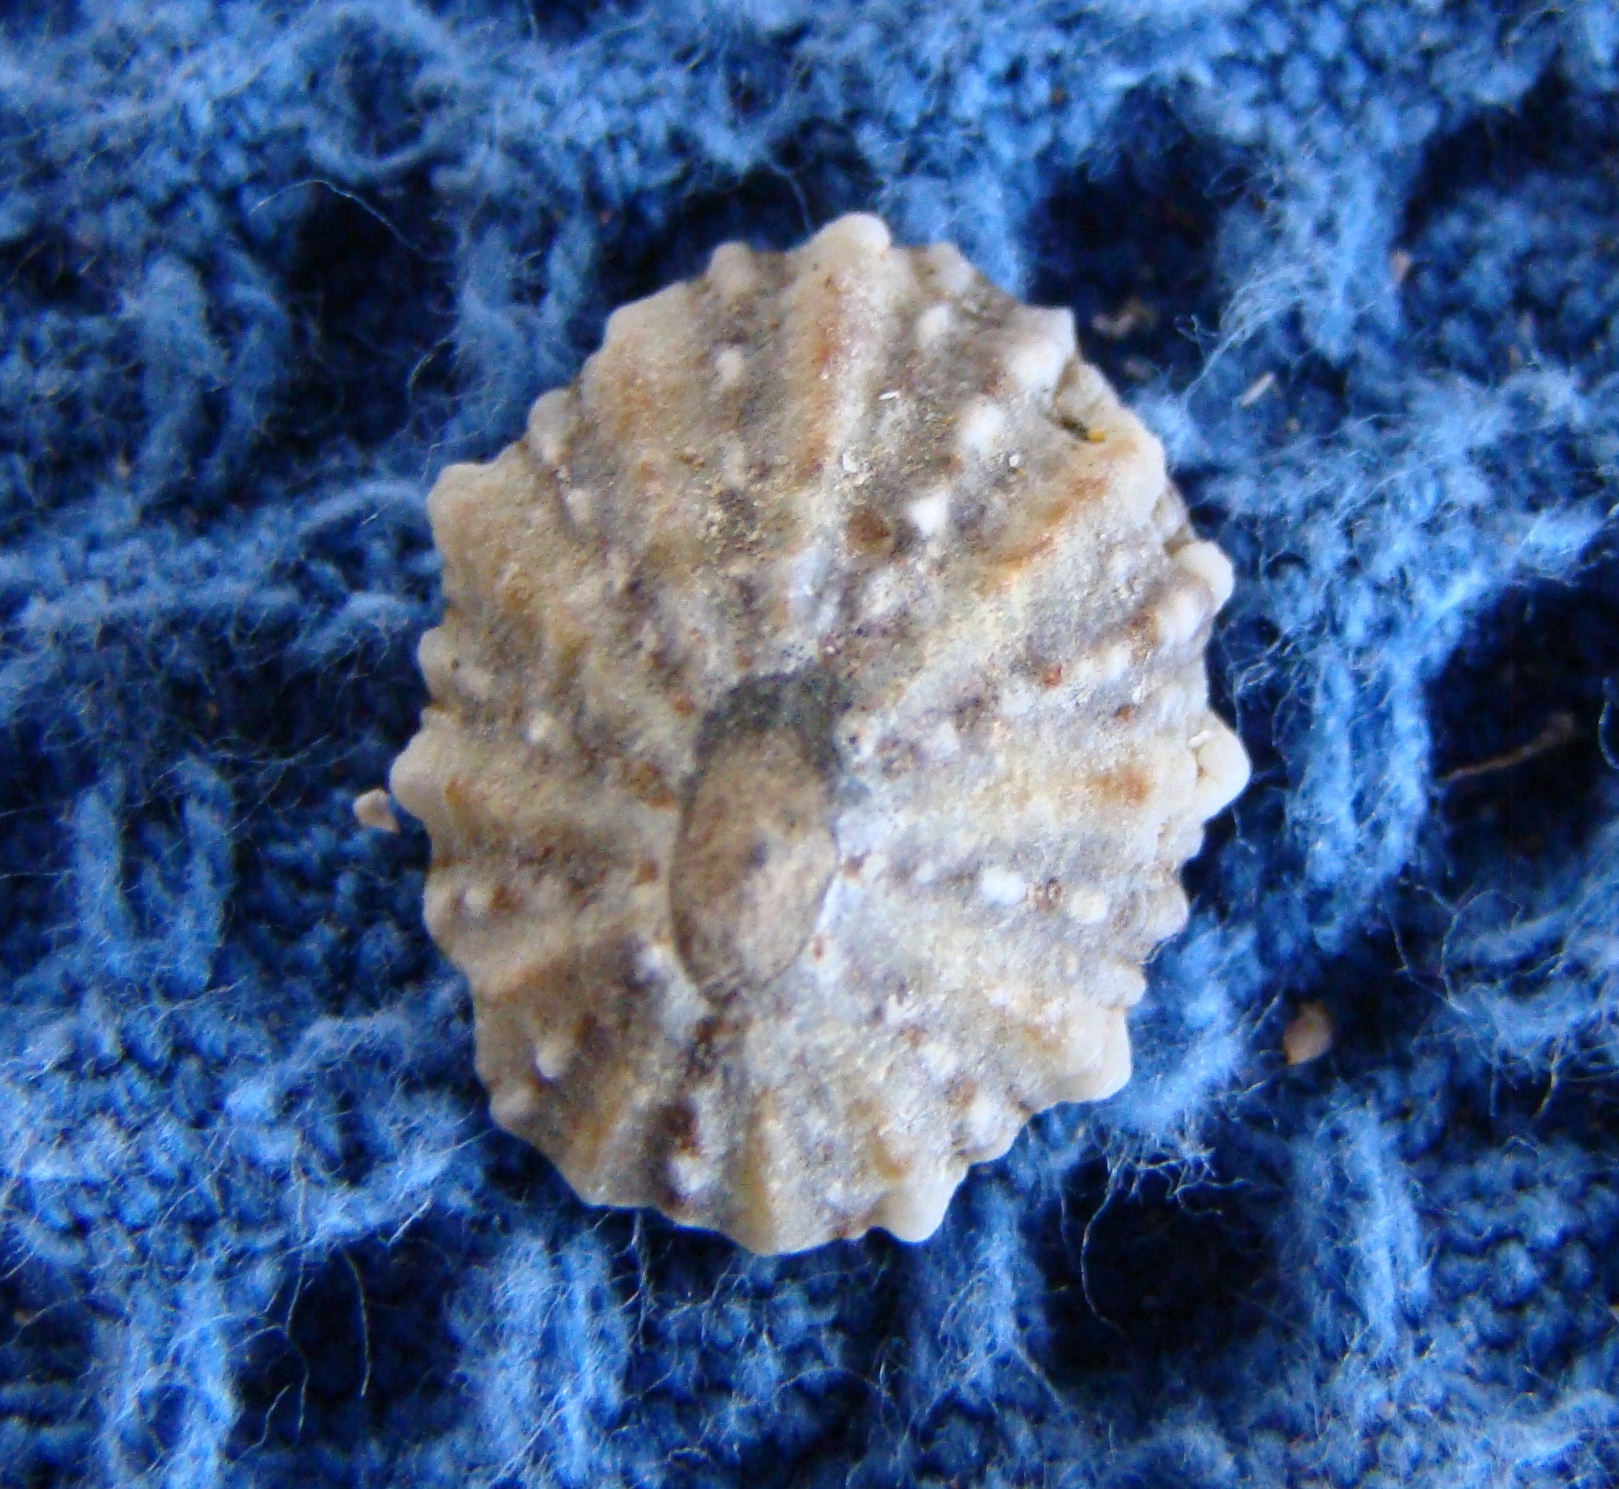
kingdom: Animalia
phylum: Mollusca
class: Gastropoda
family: Nacellidae
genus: Cellana
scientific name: Cellana ornata
